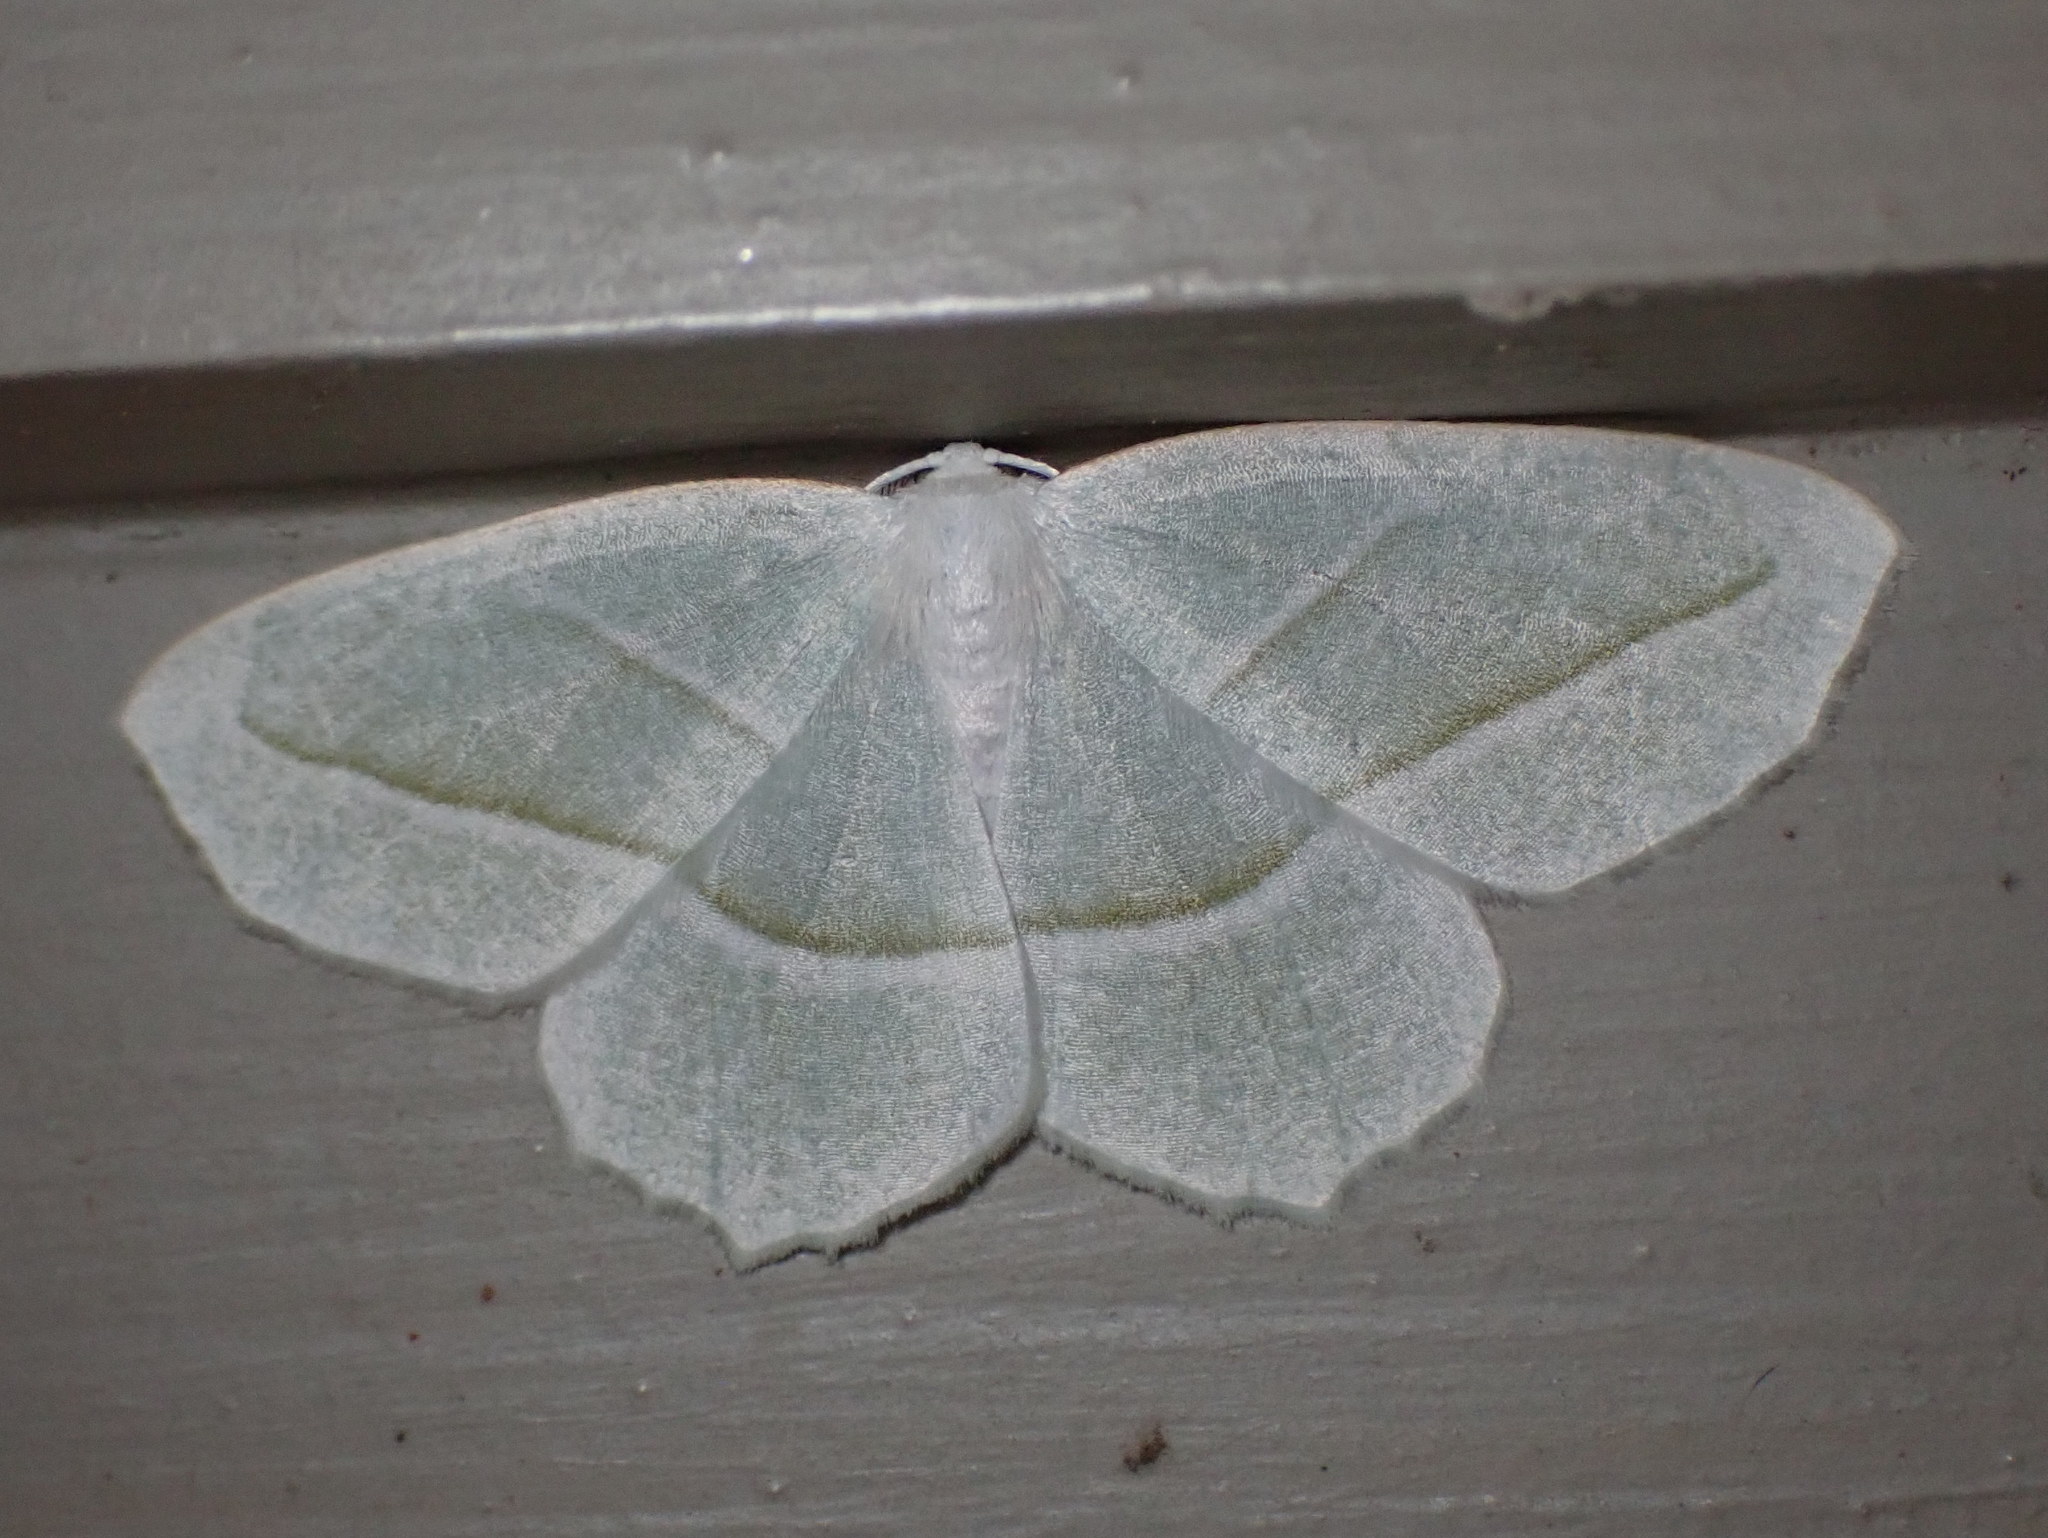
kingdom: Animalia
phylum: Arthropoda
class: Insecta
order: Lepidoptera
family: Geometridae
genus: Campaea
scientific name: Campaea perlata
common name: Fringed looper
